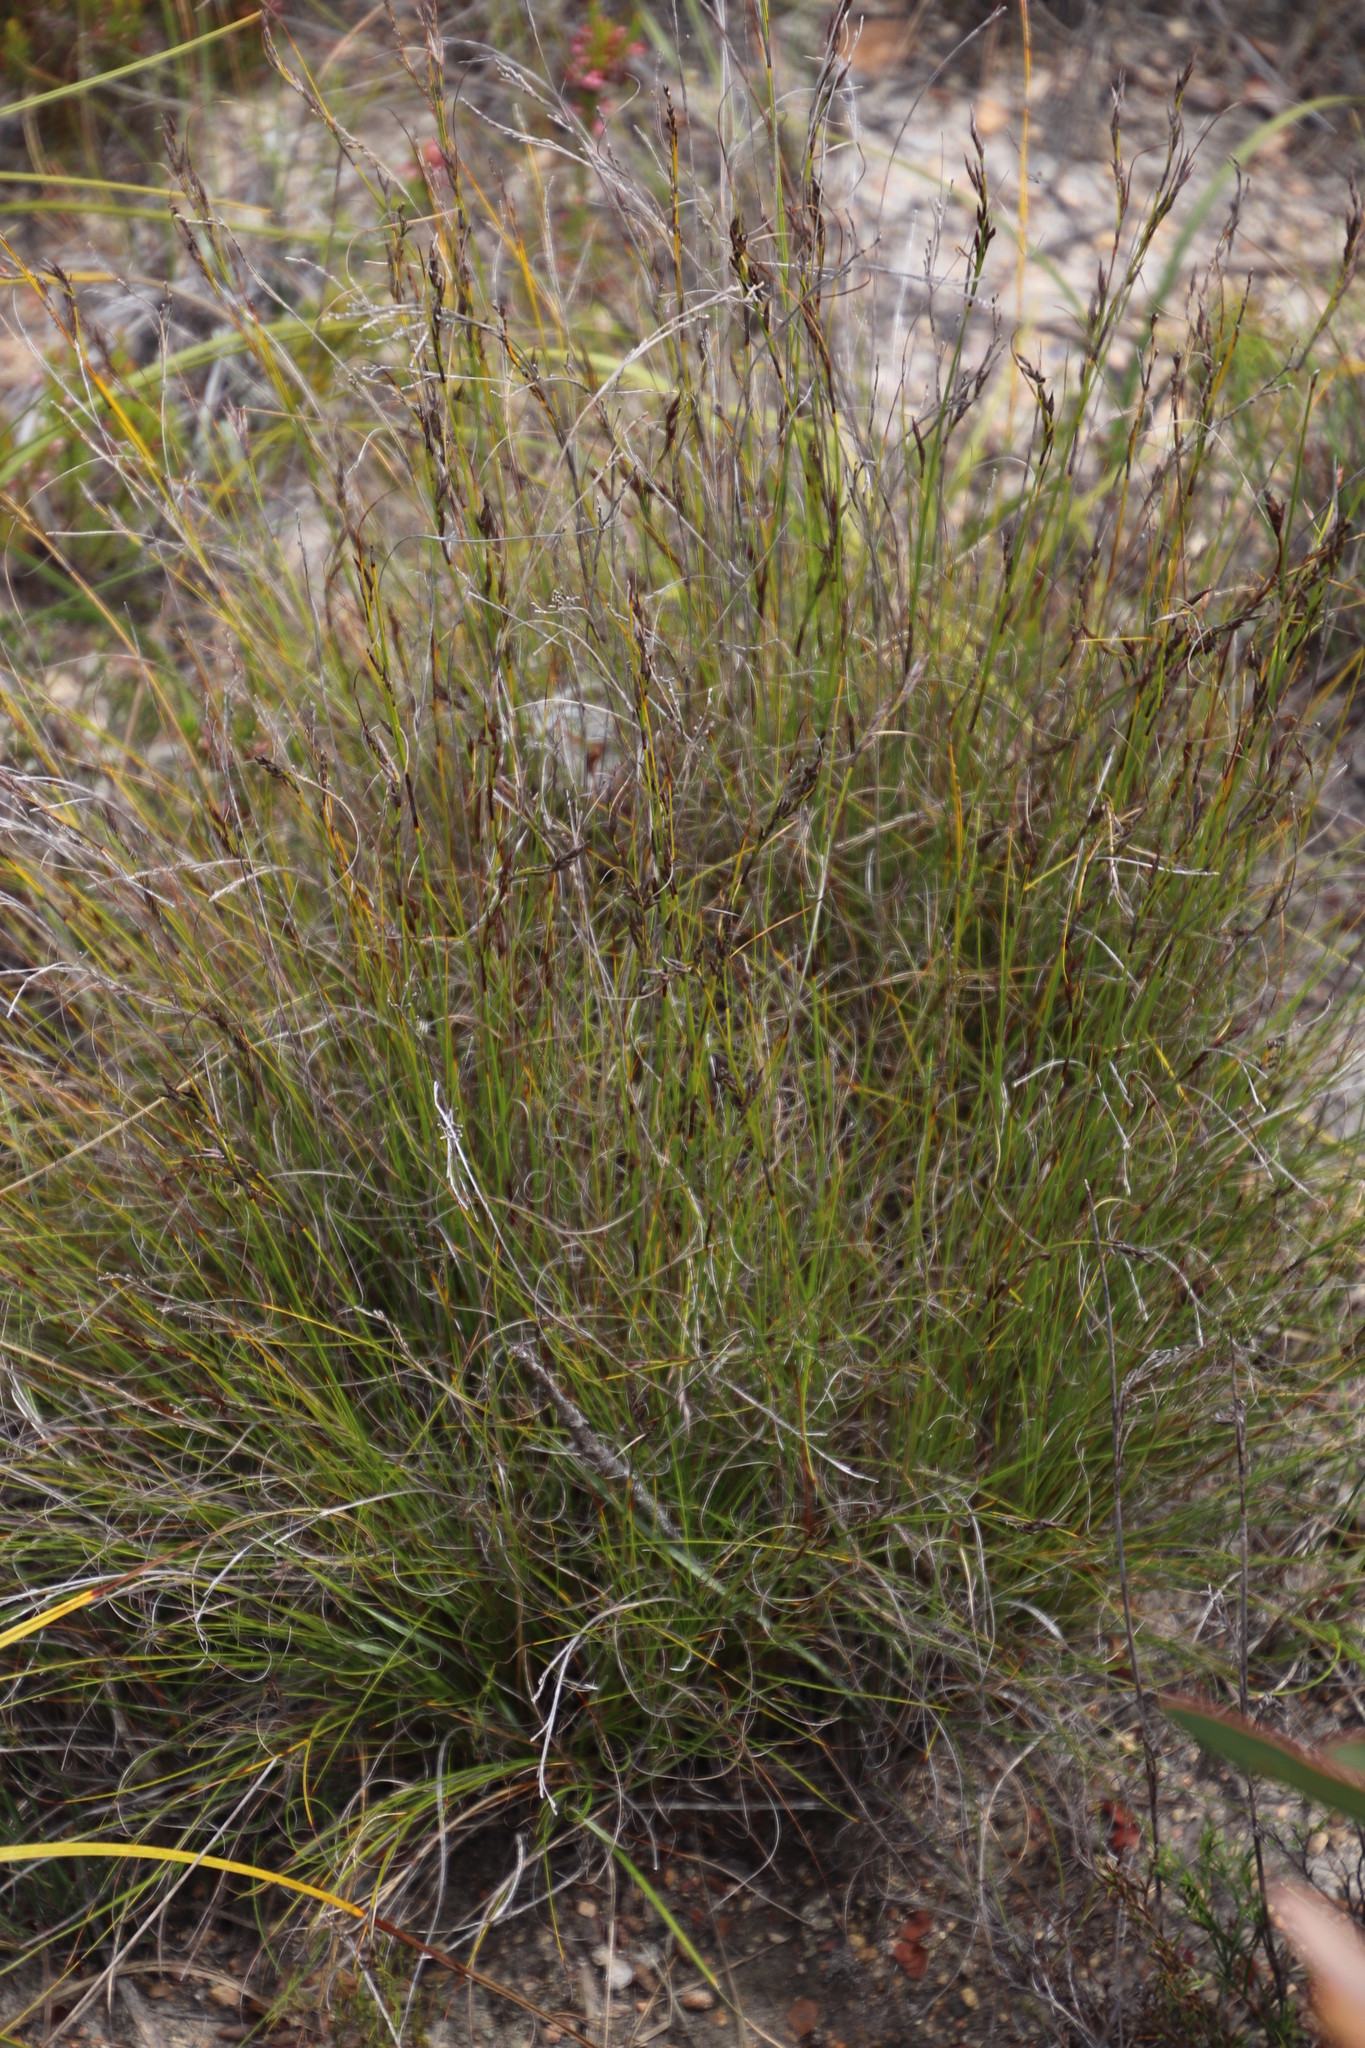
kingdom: Plantae
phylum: Tracheophyta
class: Liliopsida
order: Poales
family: Cyperaceae
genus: Tetraria
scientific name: Tetraria fasciata
